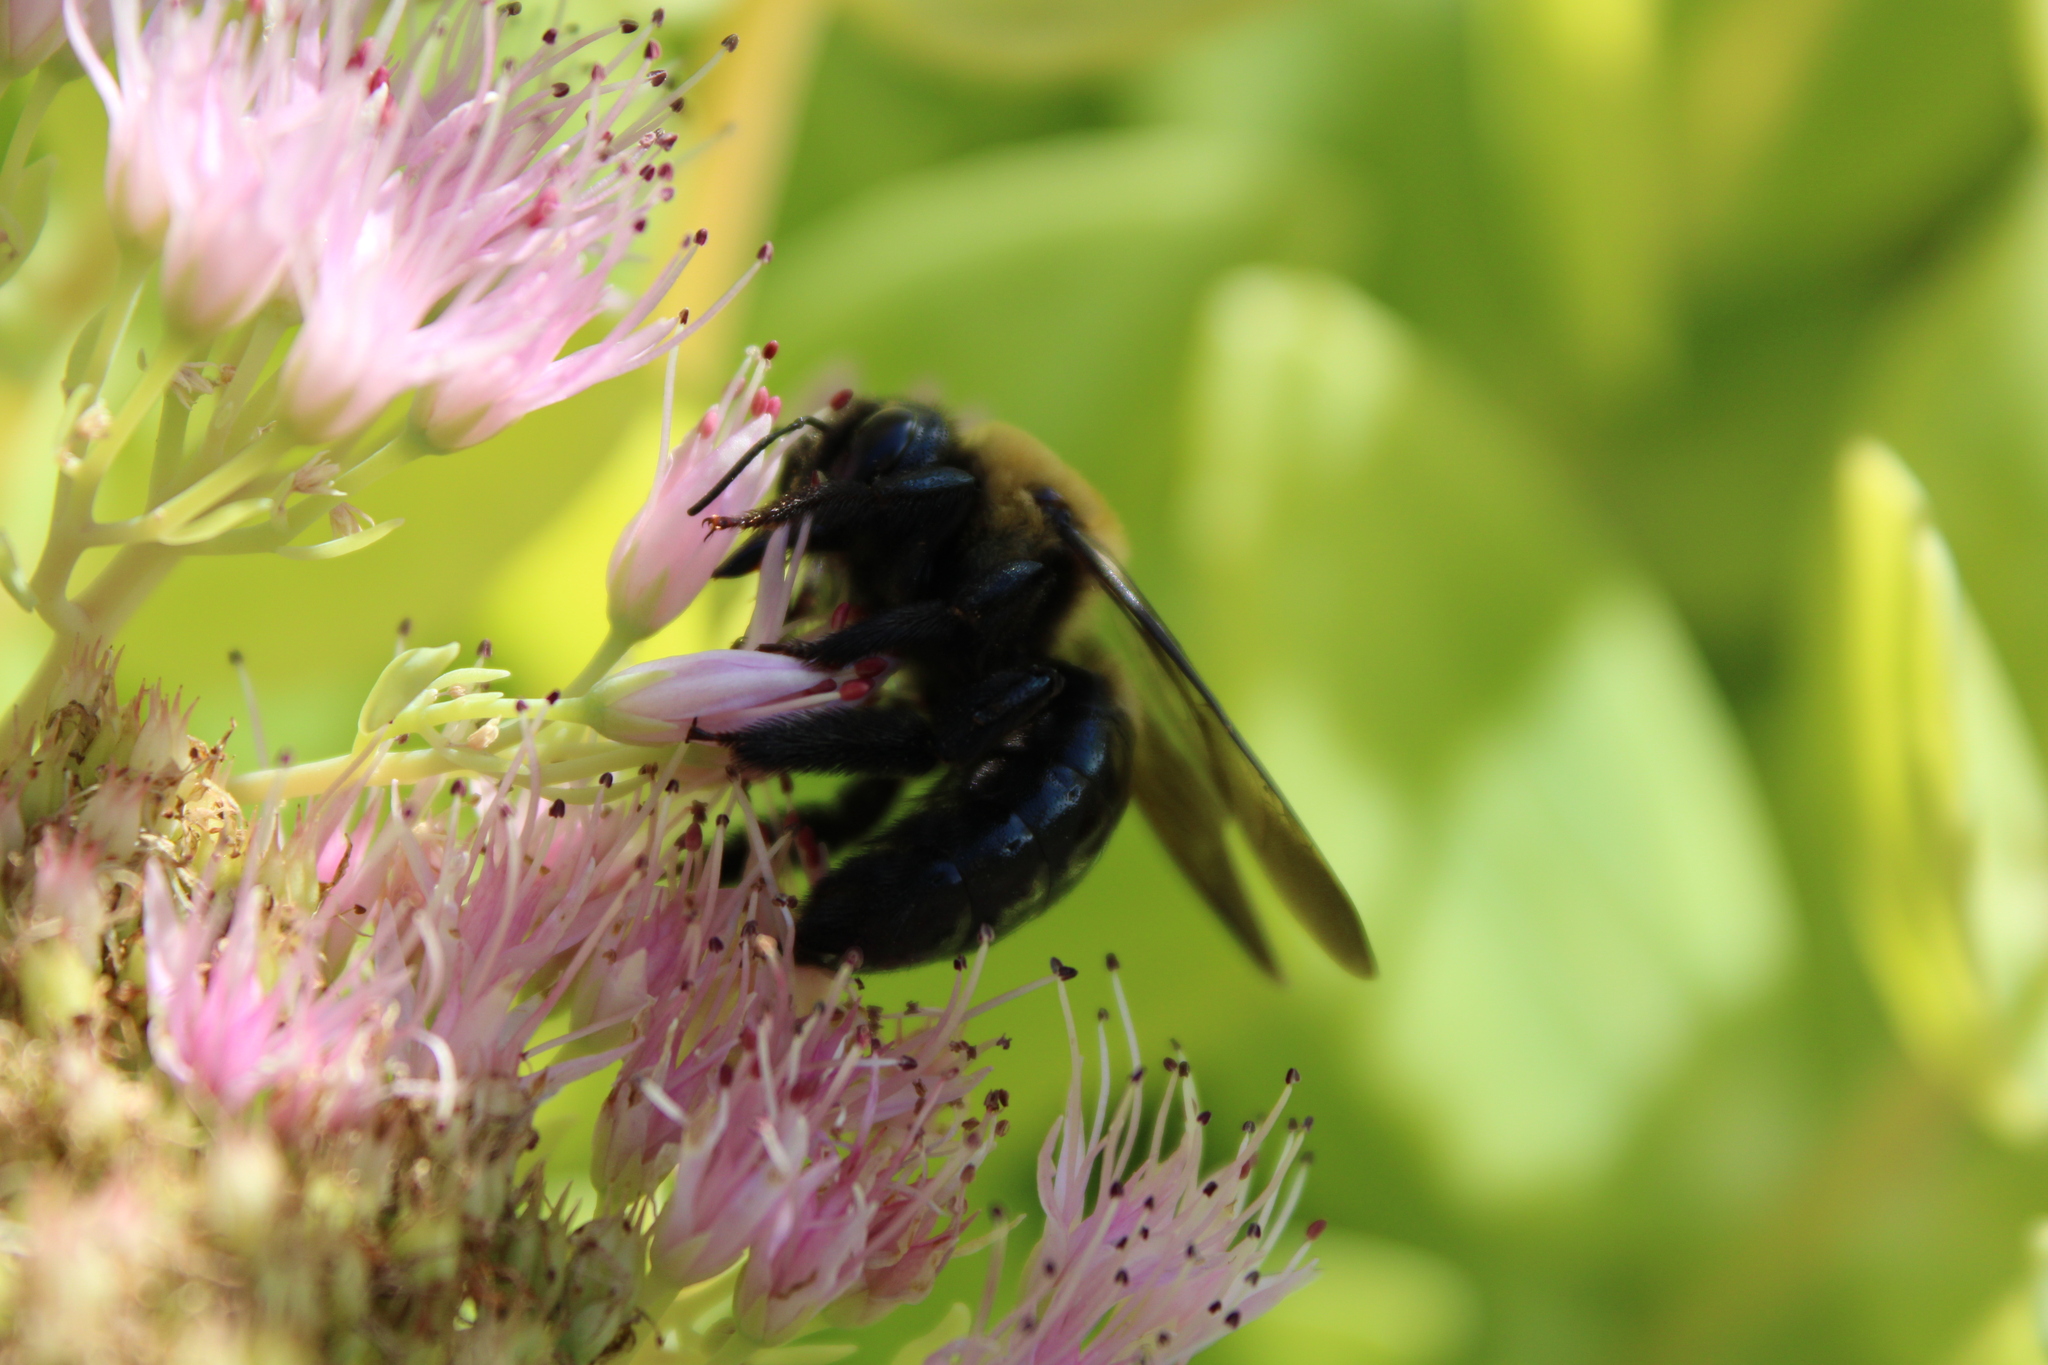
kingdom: Animalia
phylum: Arthropoda
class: Insecta
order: Hymenoptera
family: Apidae
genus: Xylocopa
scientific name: Xylocopa virginica
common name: Carpenter bee
